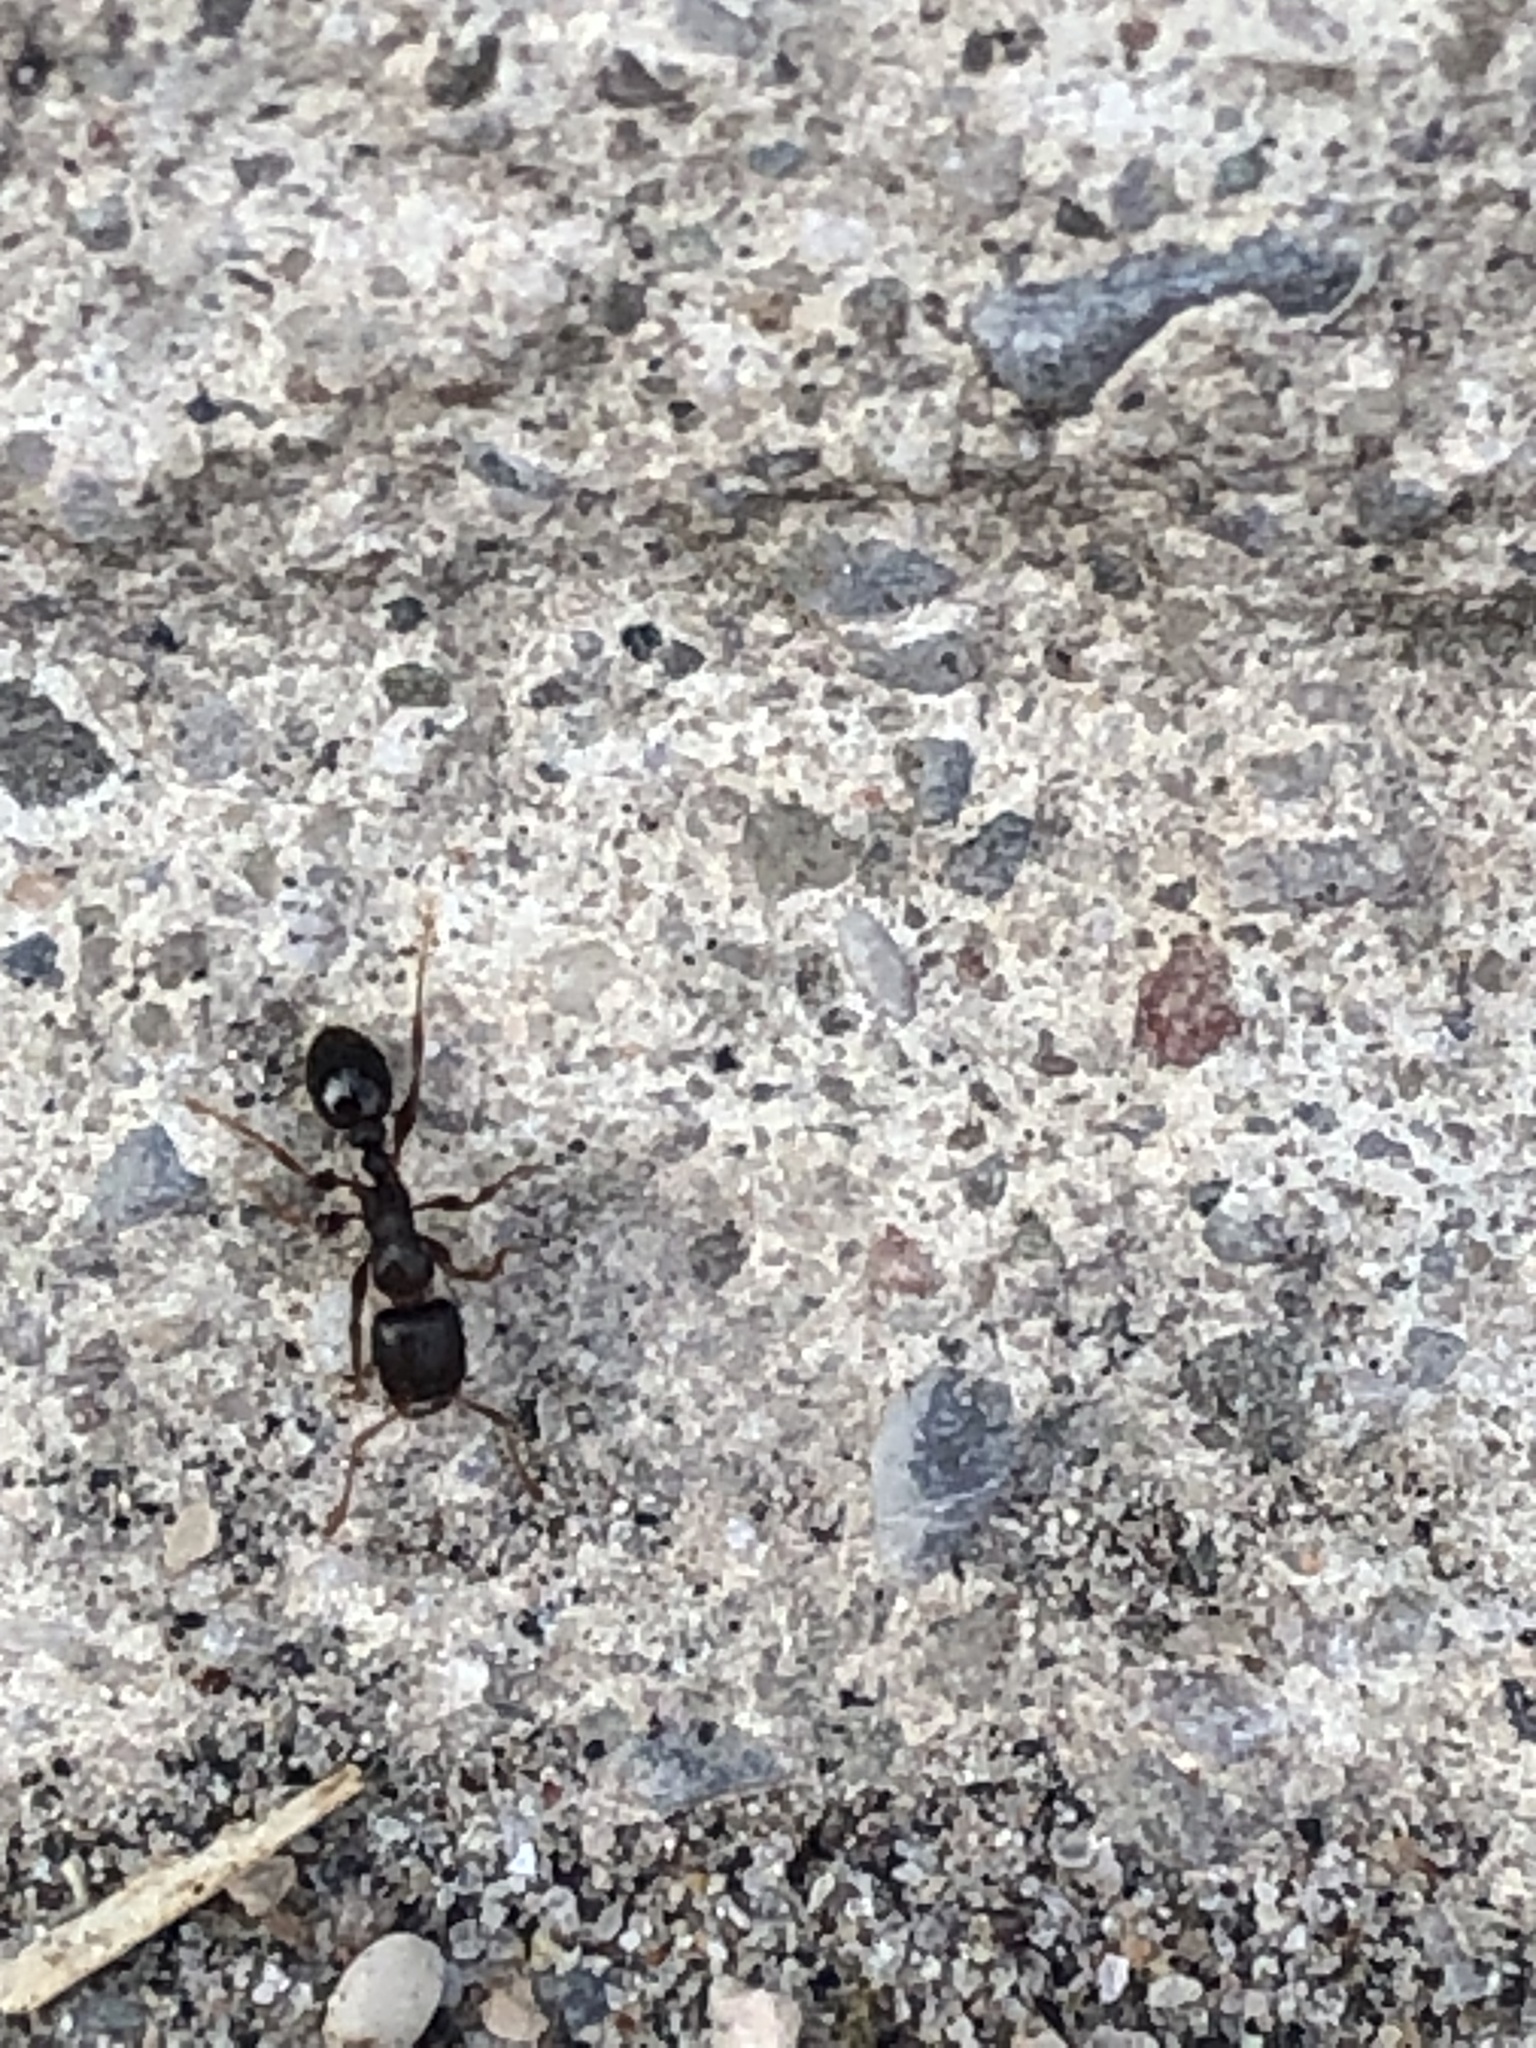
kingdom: Animalia
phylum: Arthropoda
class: Insecta
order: Hymenoptera
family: Formicidae
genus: Tetramorium
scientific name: Tetramorium immigrans
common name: Pavement ant
